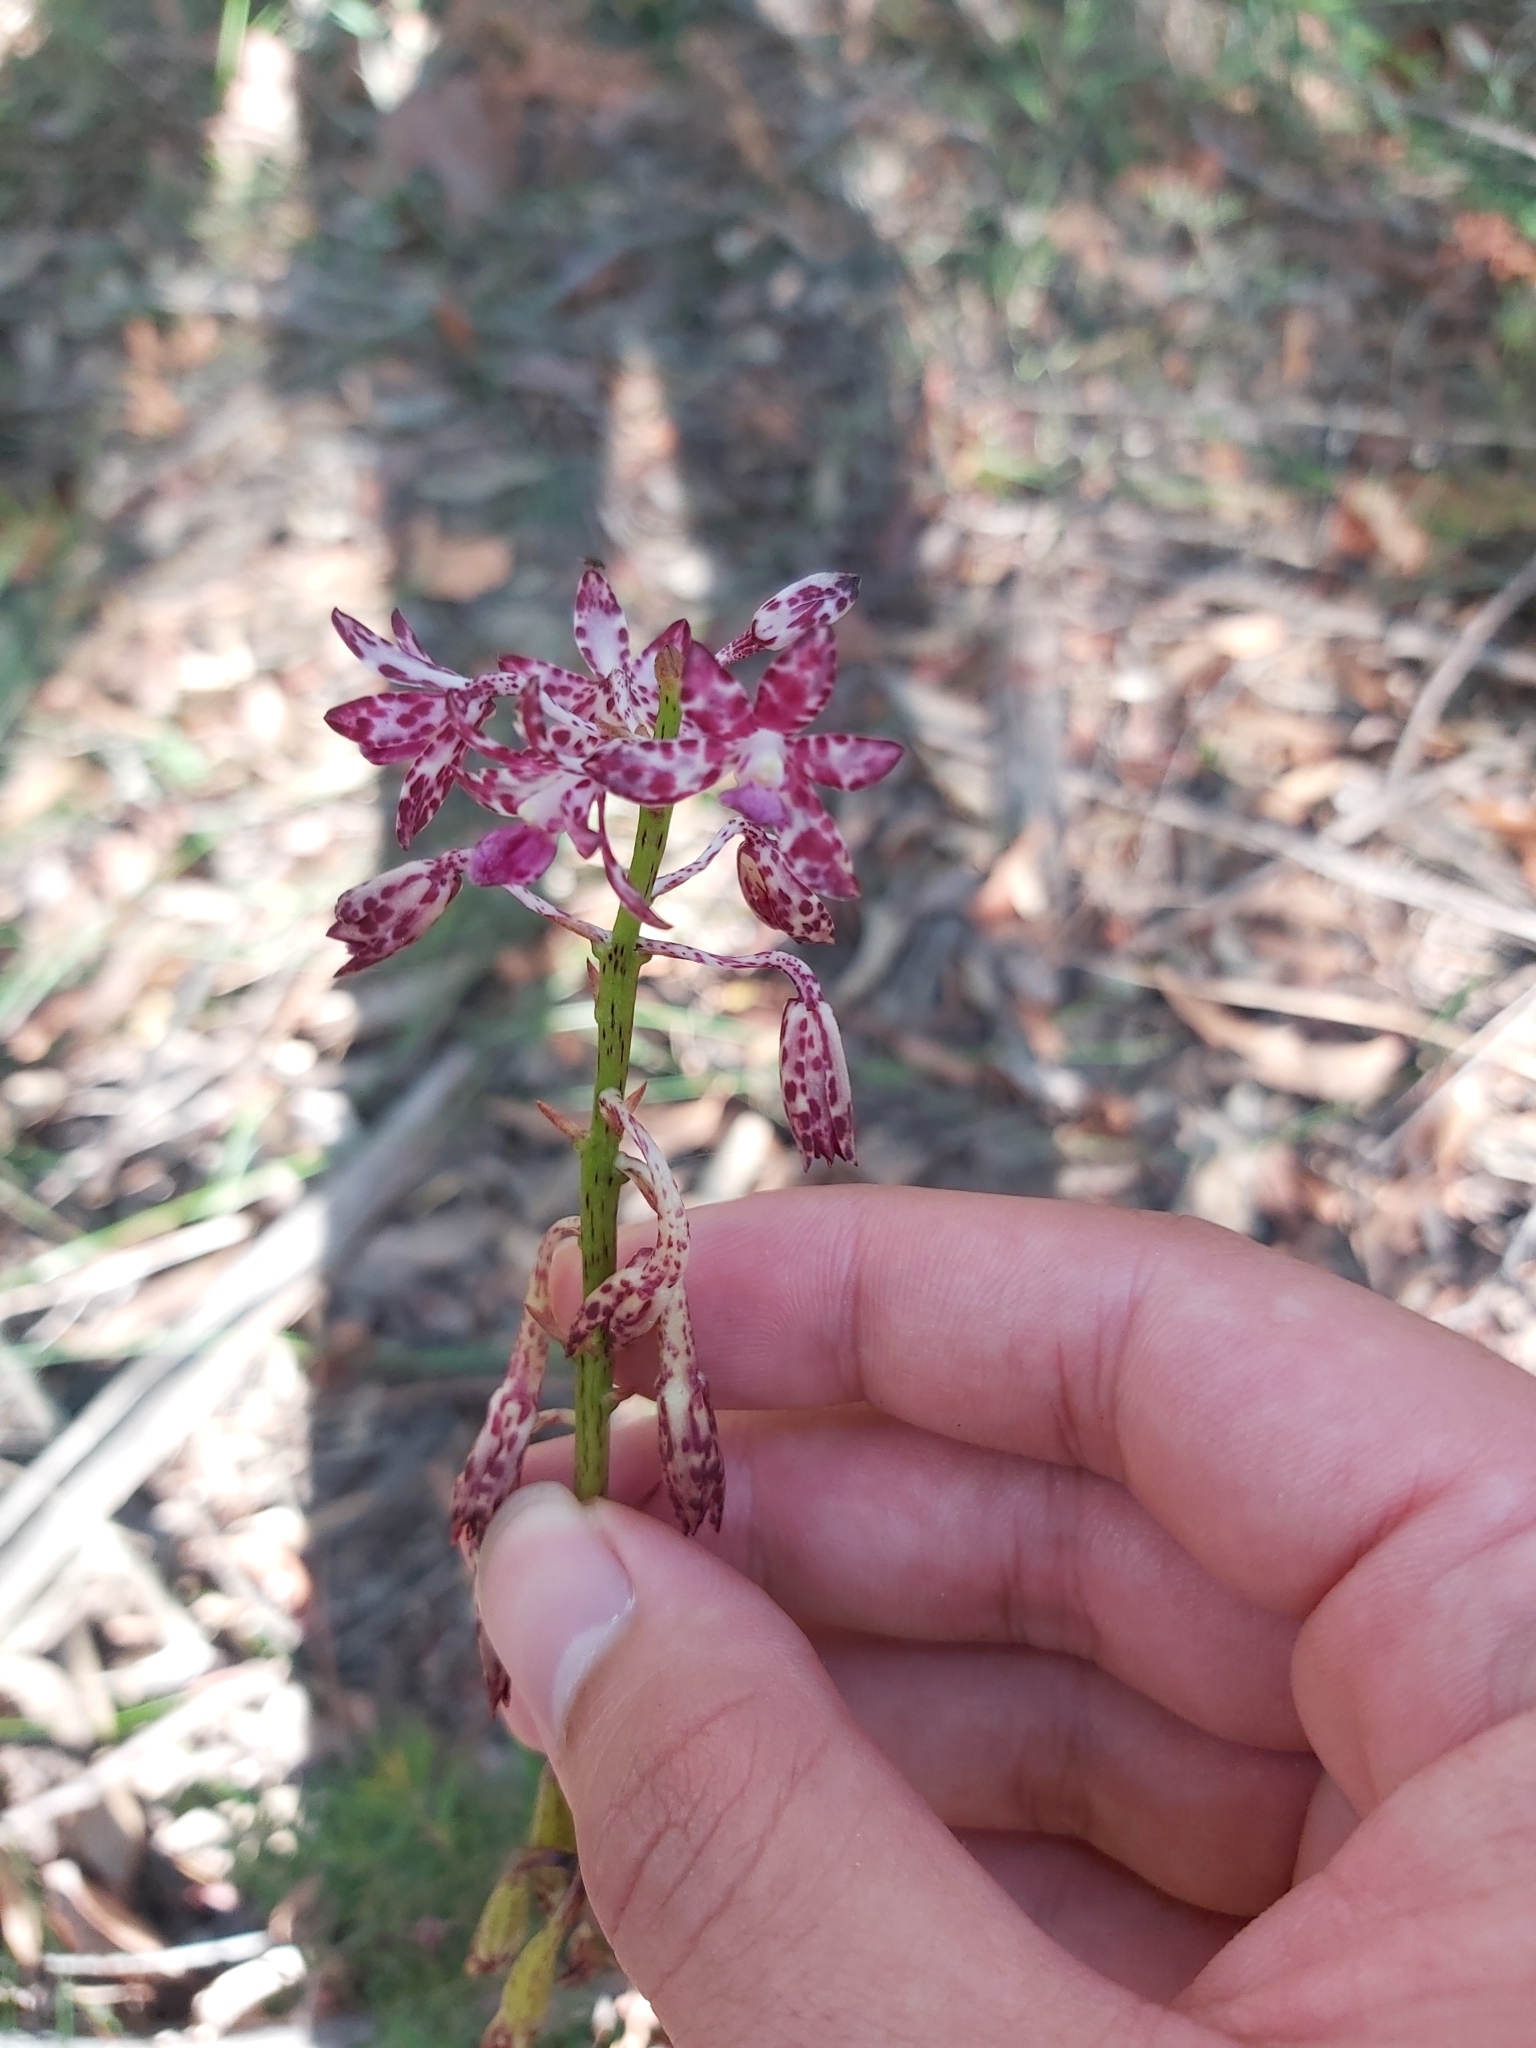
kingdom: Plantae
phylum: Tracheophyta
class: Liliopsida
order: Asparagales
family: Orchidaceae
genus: Dipodium
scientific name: Dipodium variegatum
